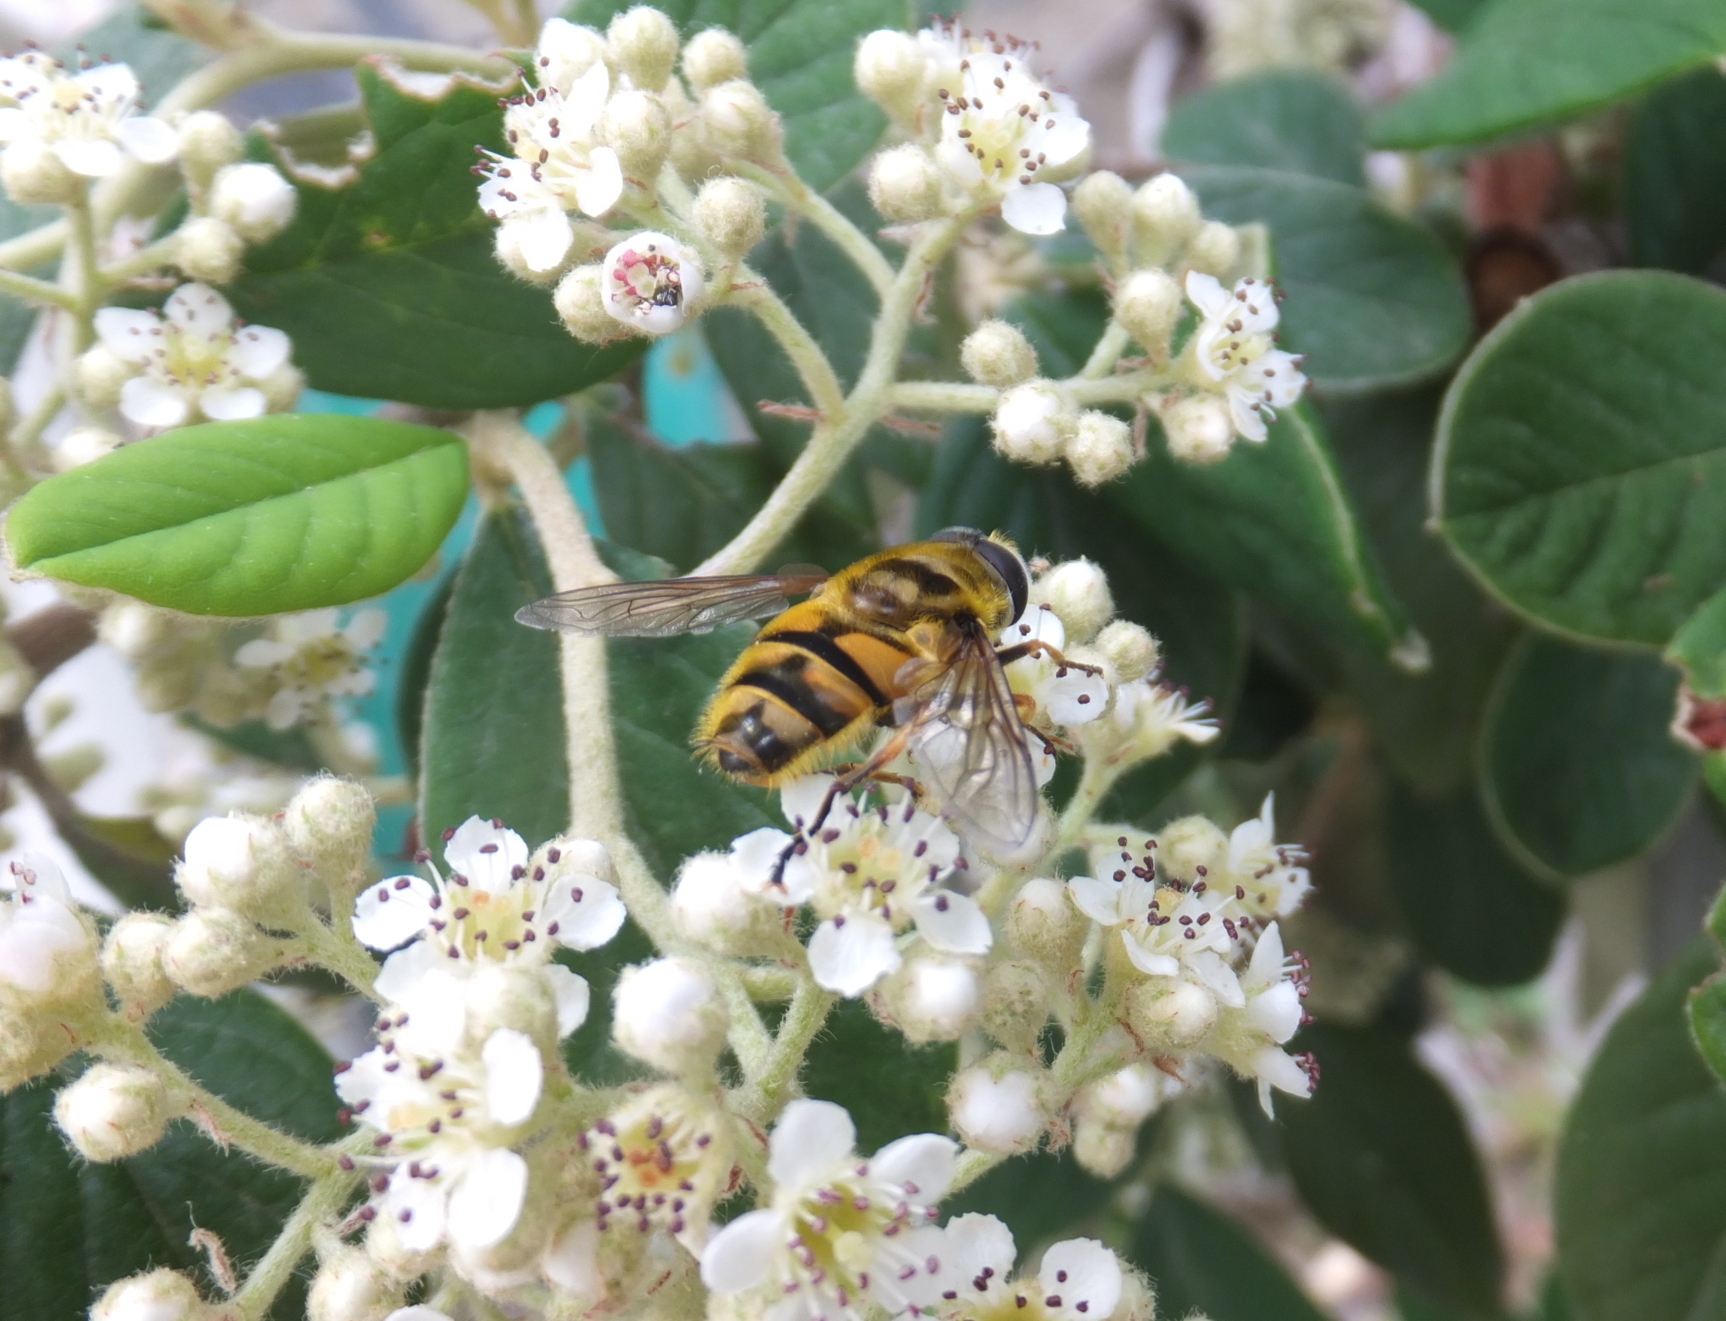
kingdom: Animalia
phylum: Arthropoda
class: Insecta
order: Diptera
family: Syrphidae
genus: Myathropa
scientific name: Myathropa florea
